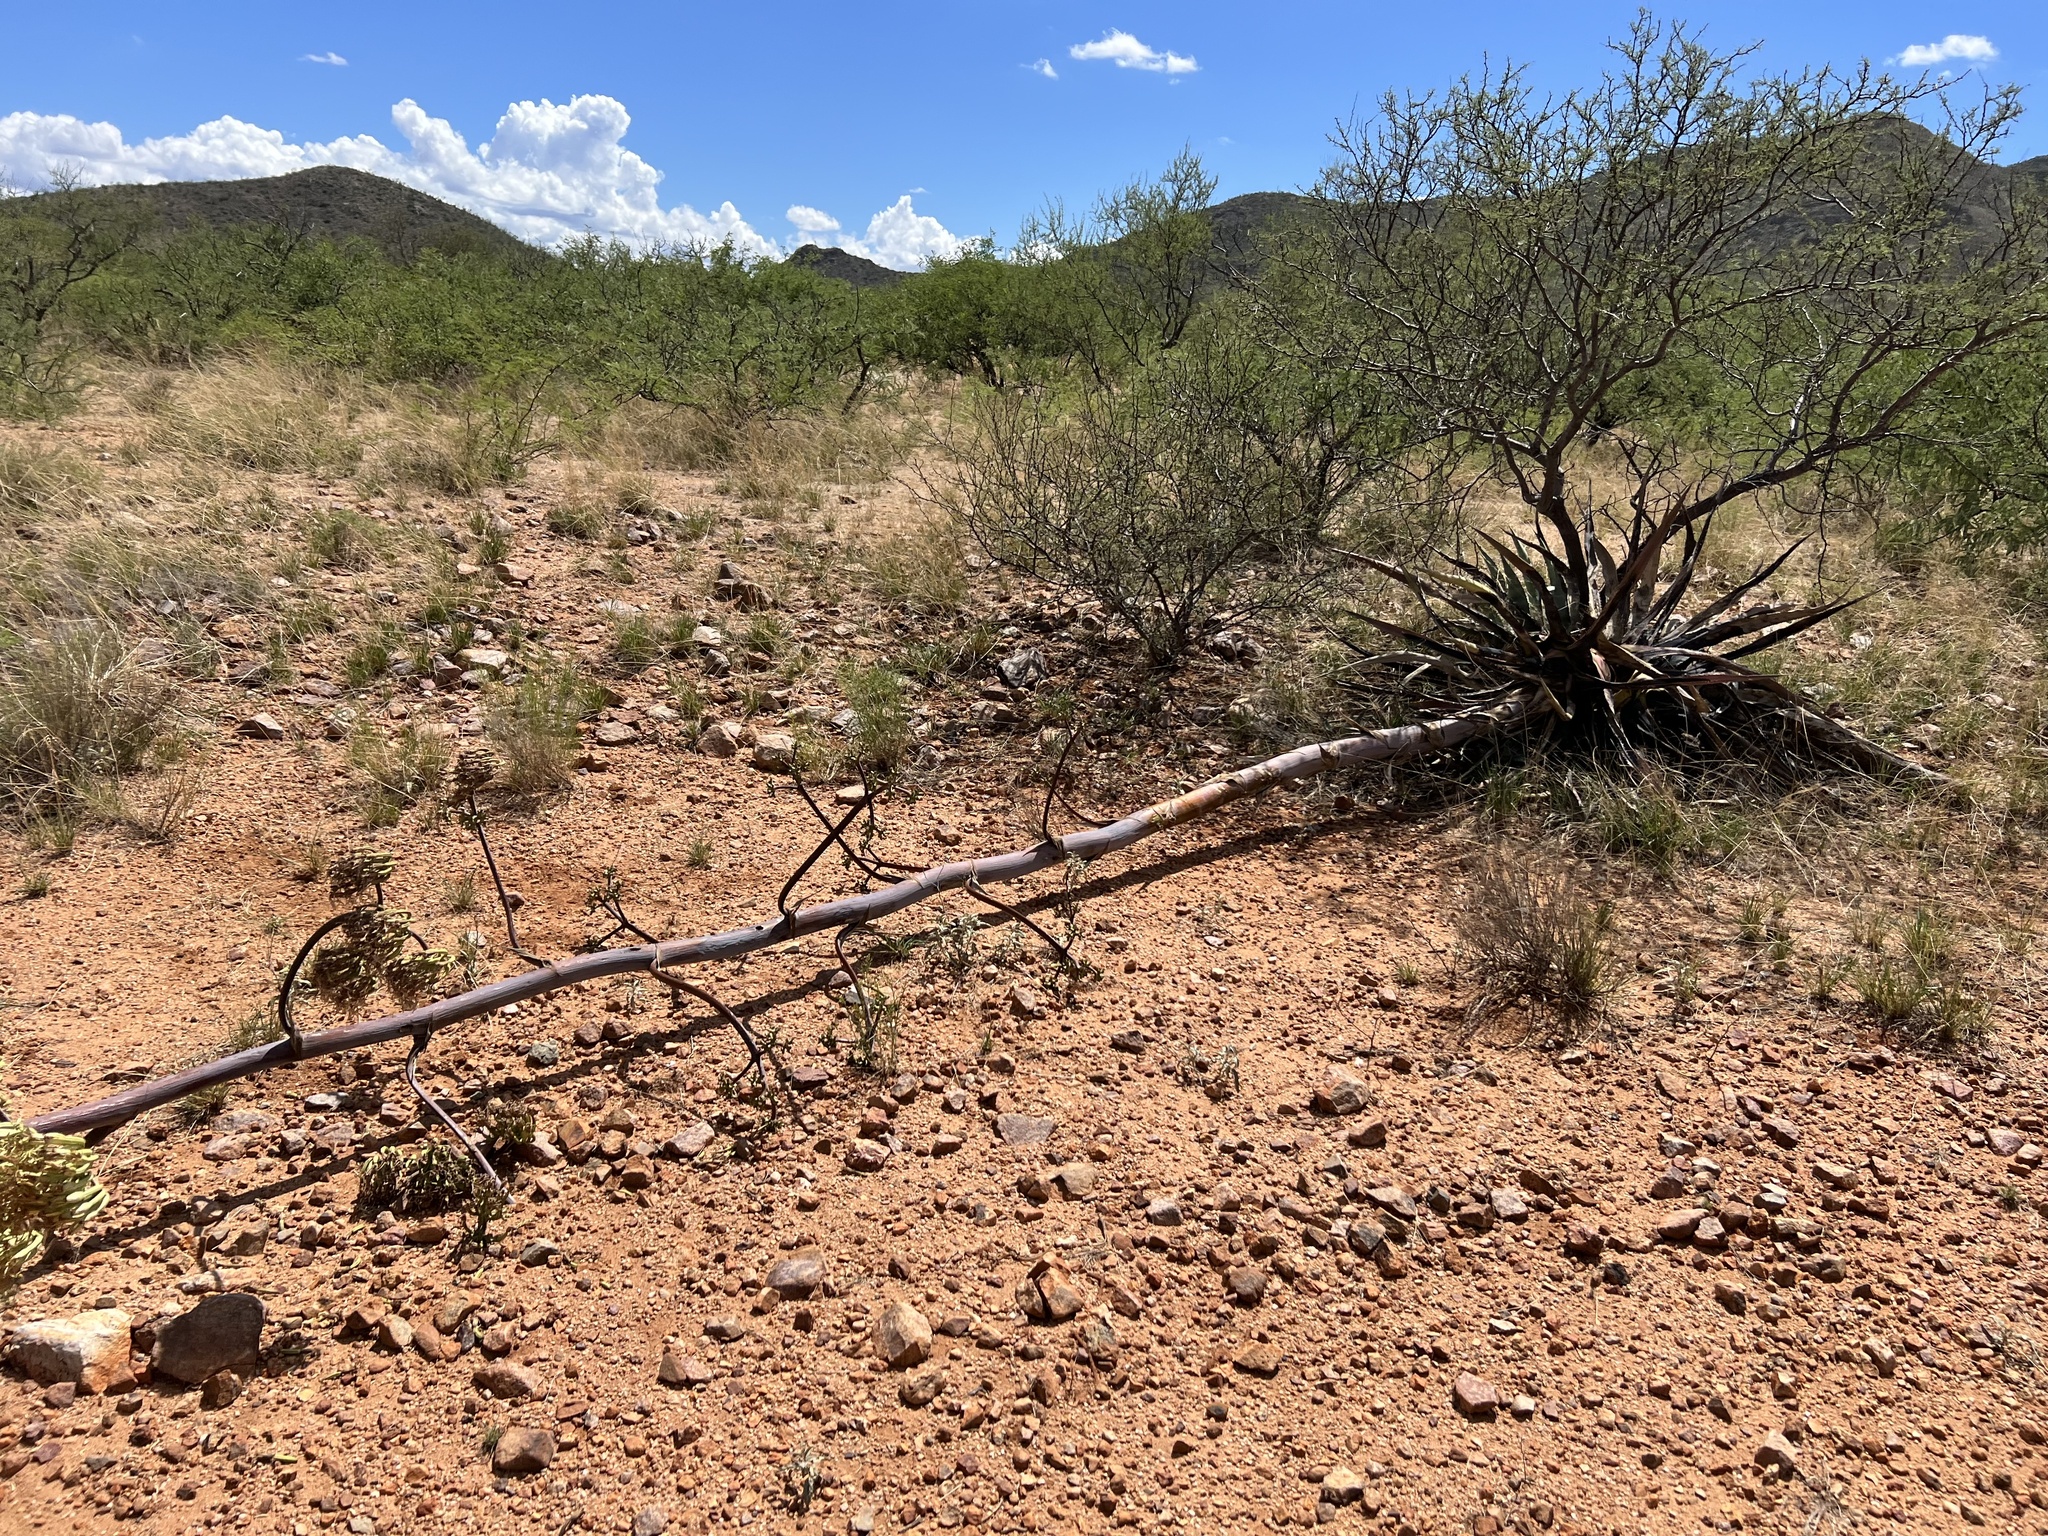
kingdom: Plantae
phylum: Tracheophyta
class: Liliopsida
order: Asparagales
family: Asparagaceae
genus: Agave
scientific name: Agave palmeri
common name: Palmer agave
